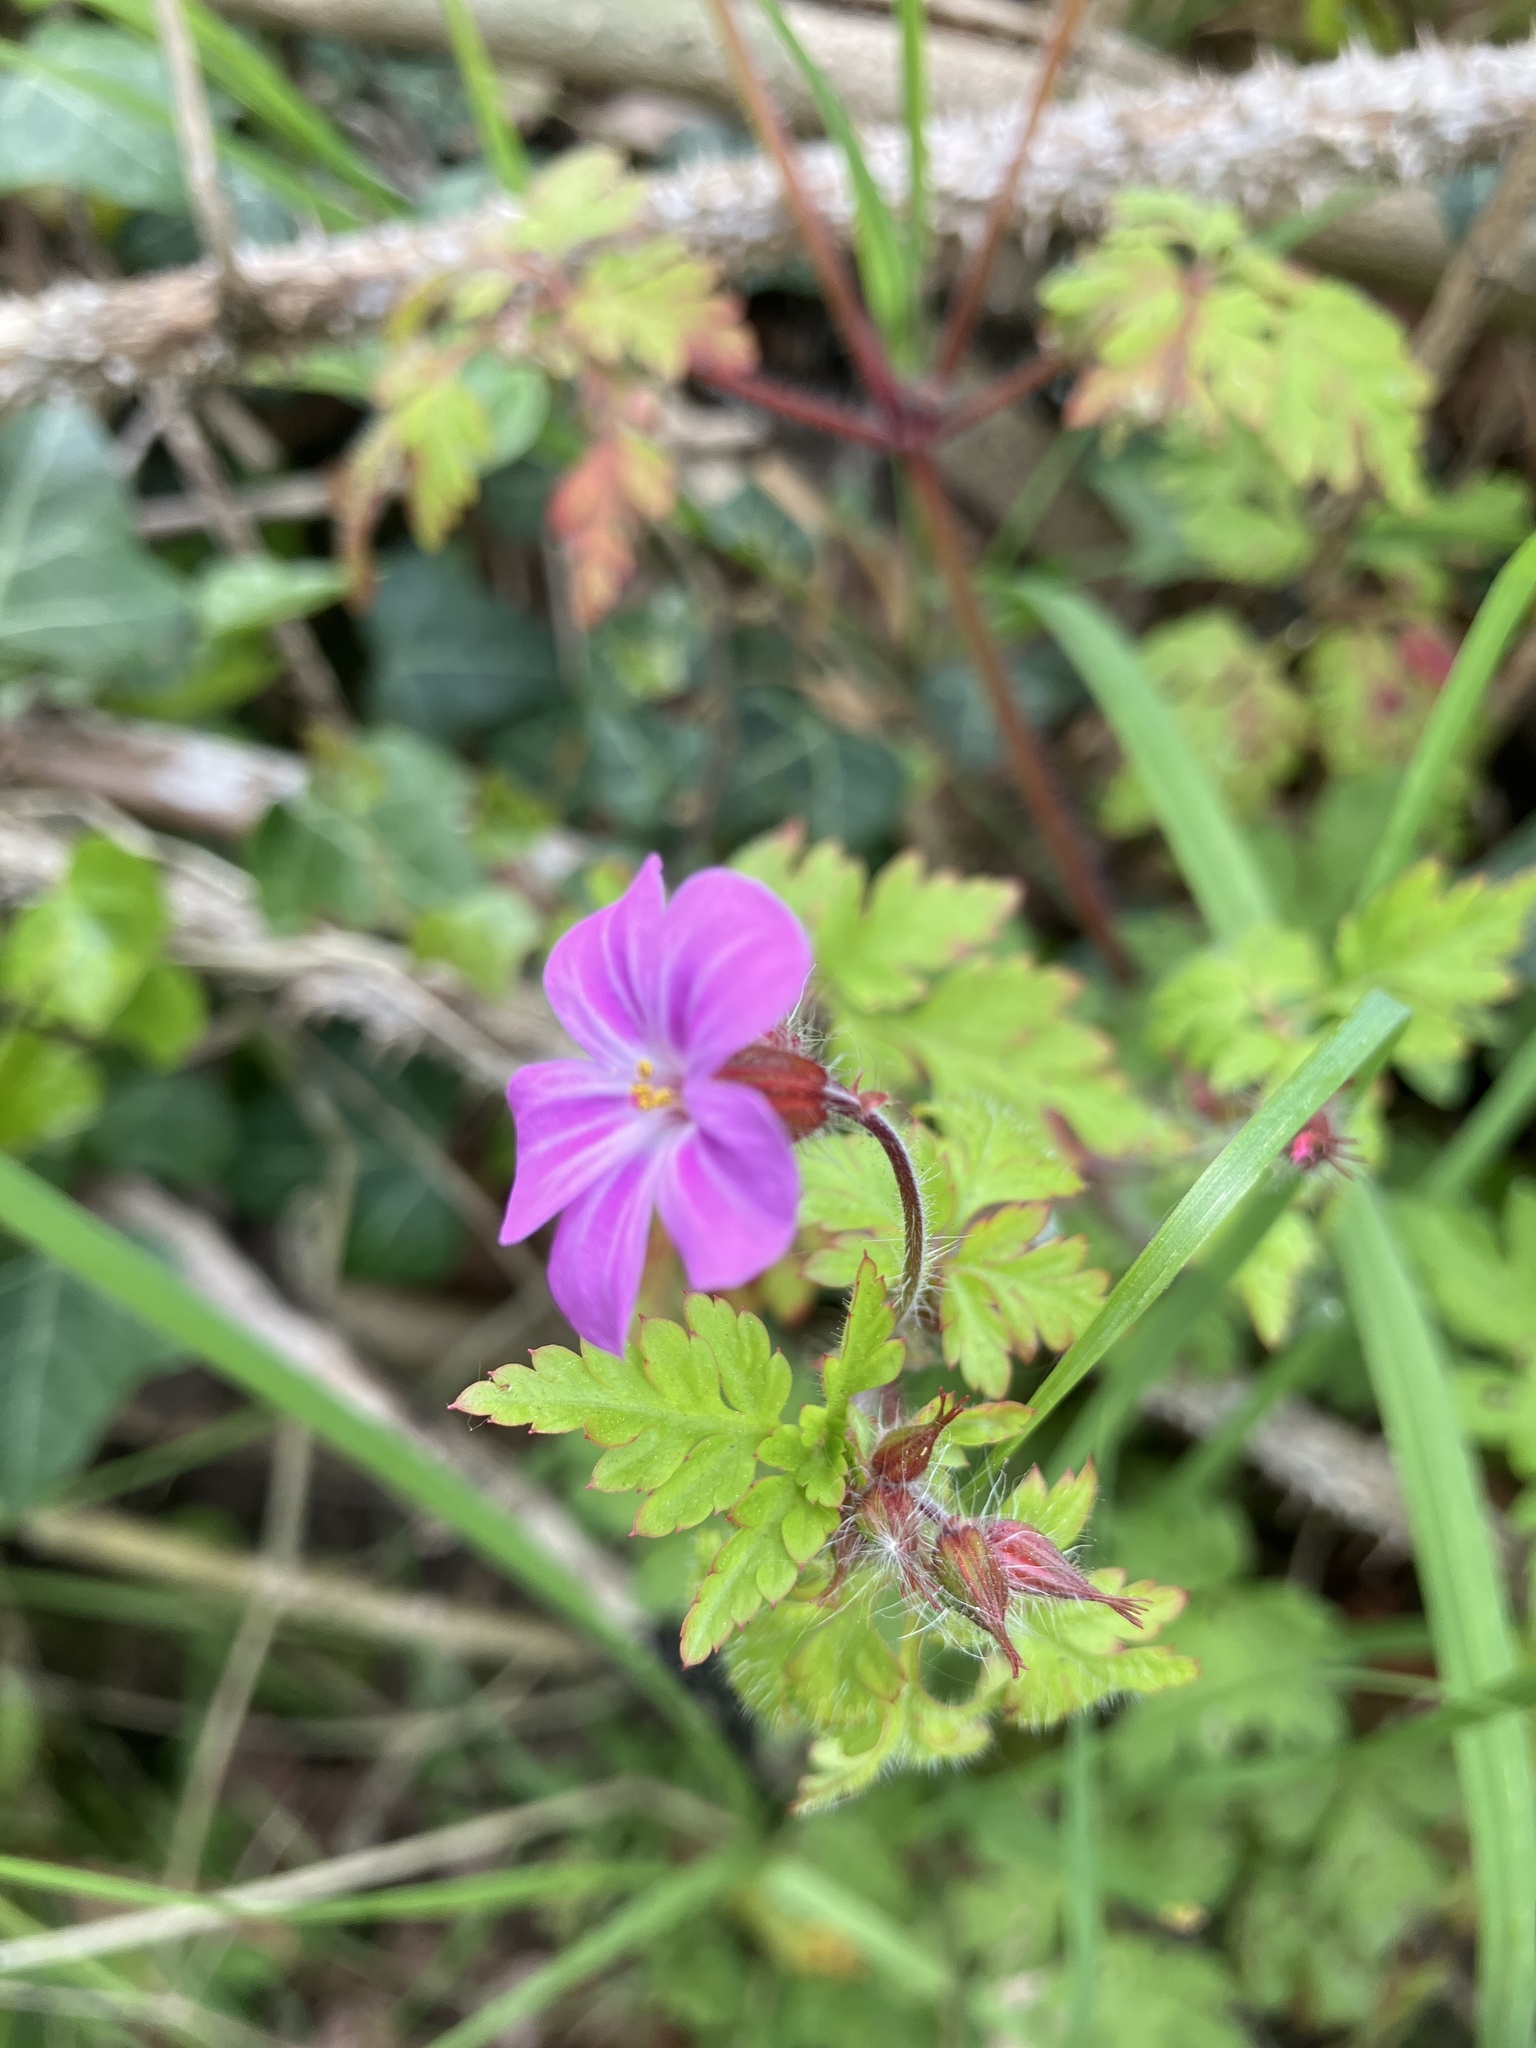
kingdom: Plantae
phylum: Tracheophyta
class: Magnoliopsida
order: Geraniales
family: Geraniaceae
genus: Geranium
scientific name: Geranium robertianum
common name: Herb-robert
